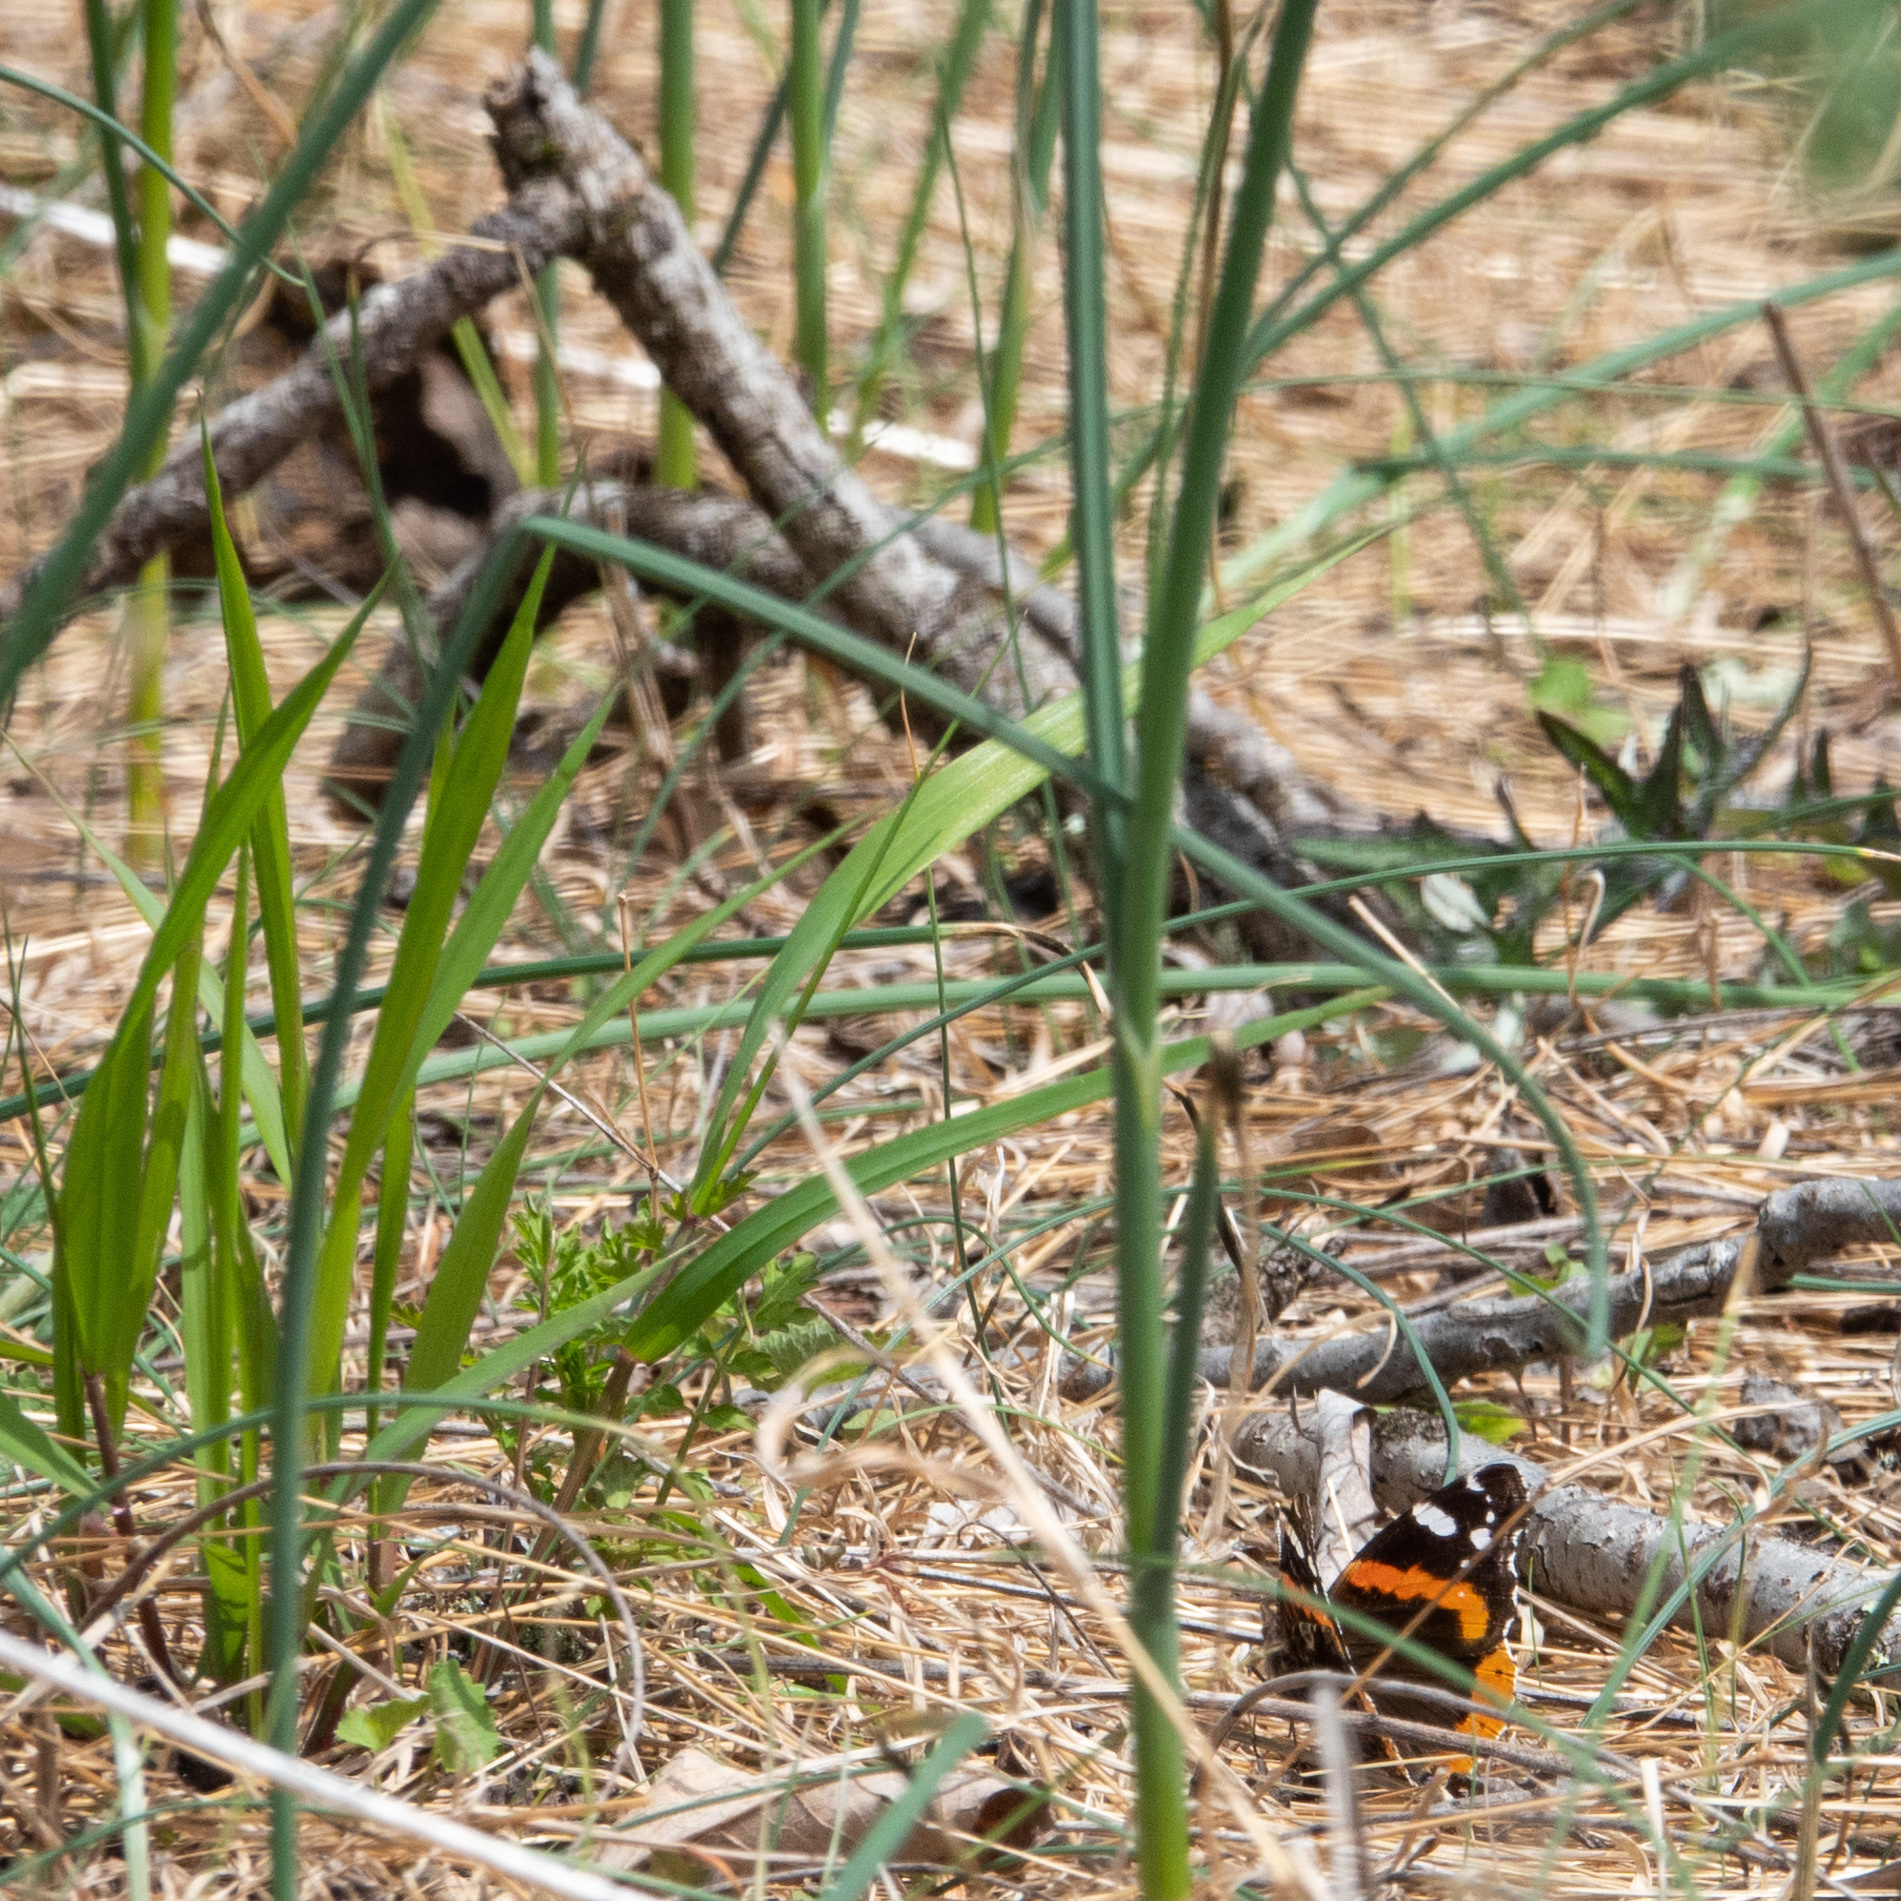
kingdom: Animalia
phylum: Arthropoda
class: Insecta
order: Lepidoptera
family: Nymphalidae
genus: Vanessa
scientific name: Vanessa atalanta
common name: Red admiral
